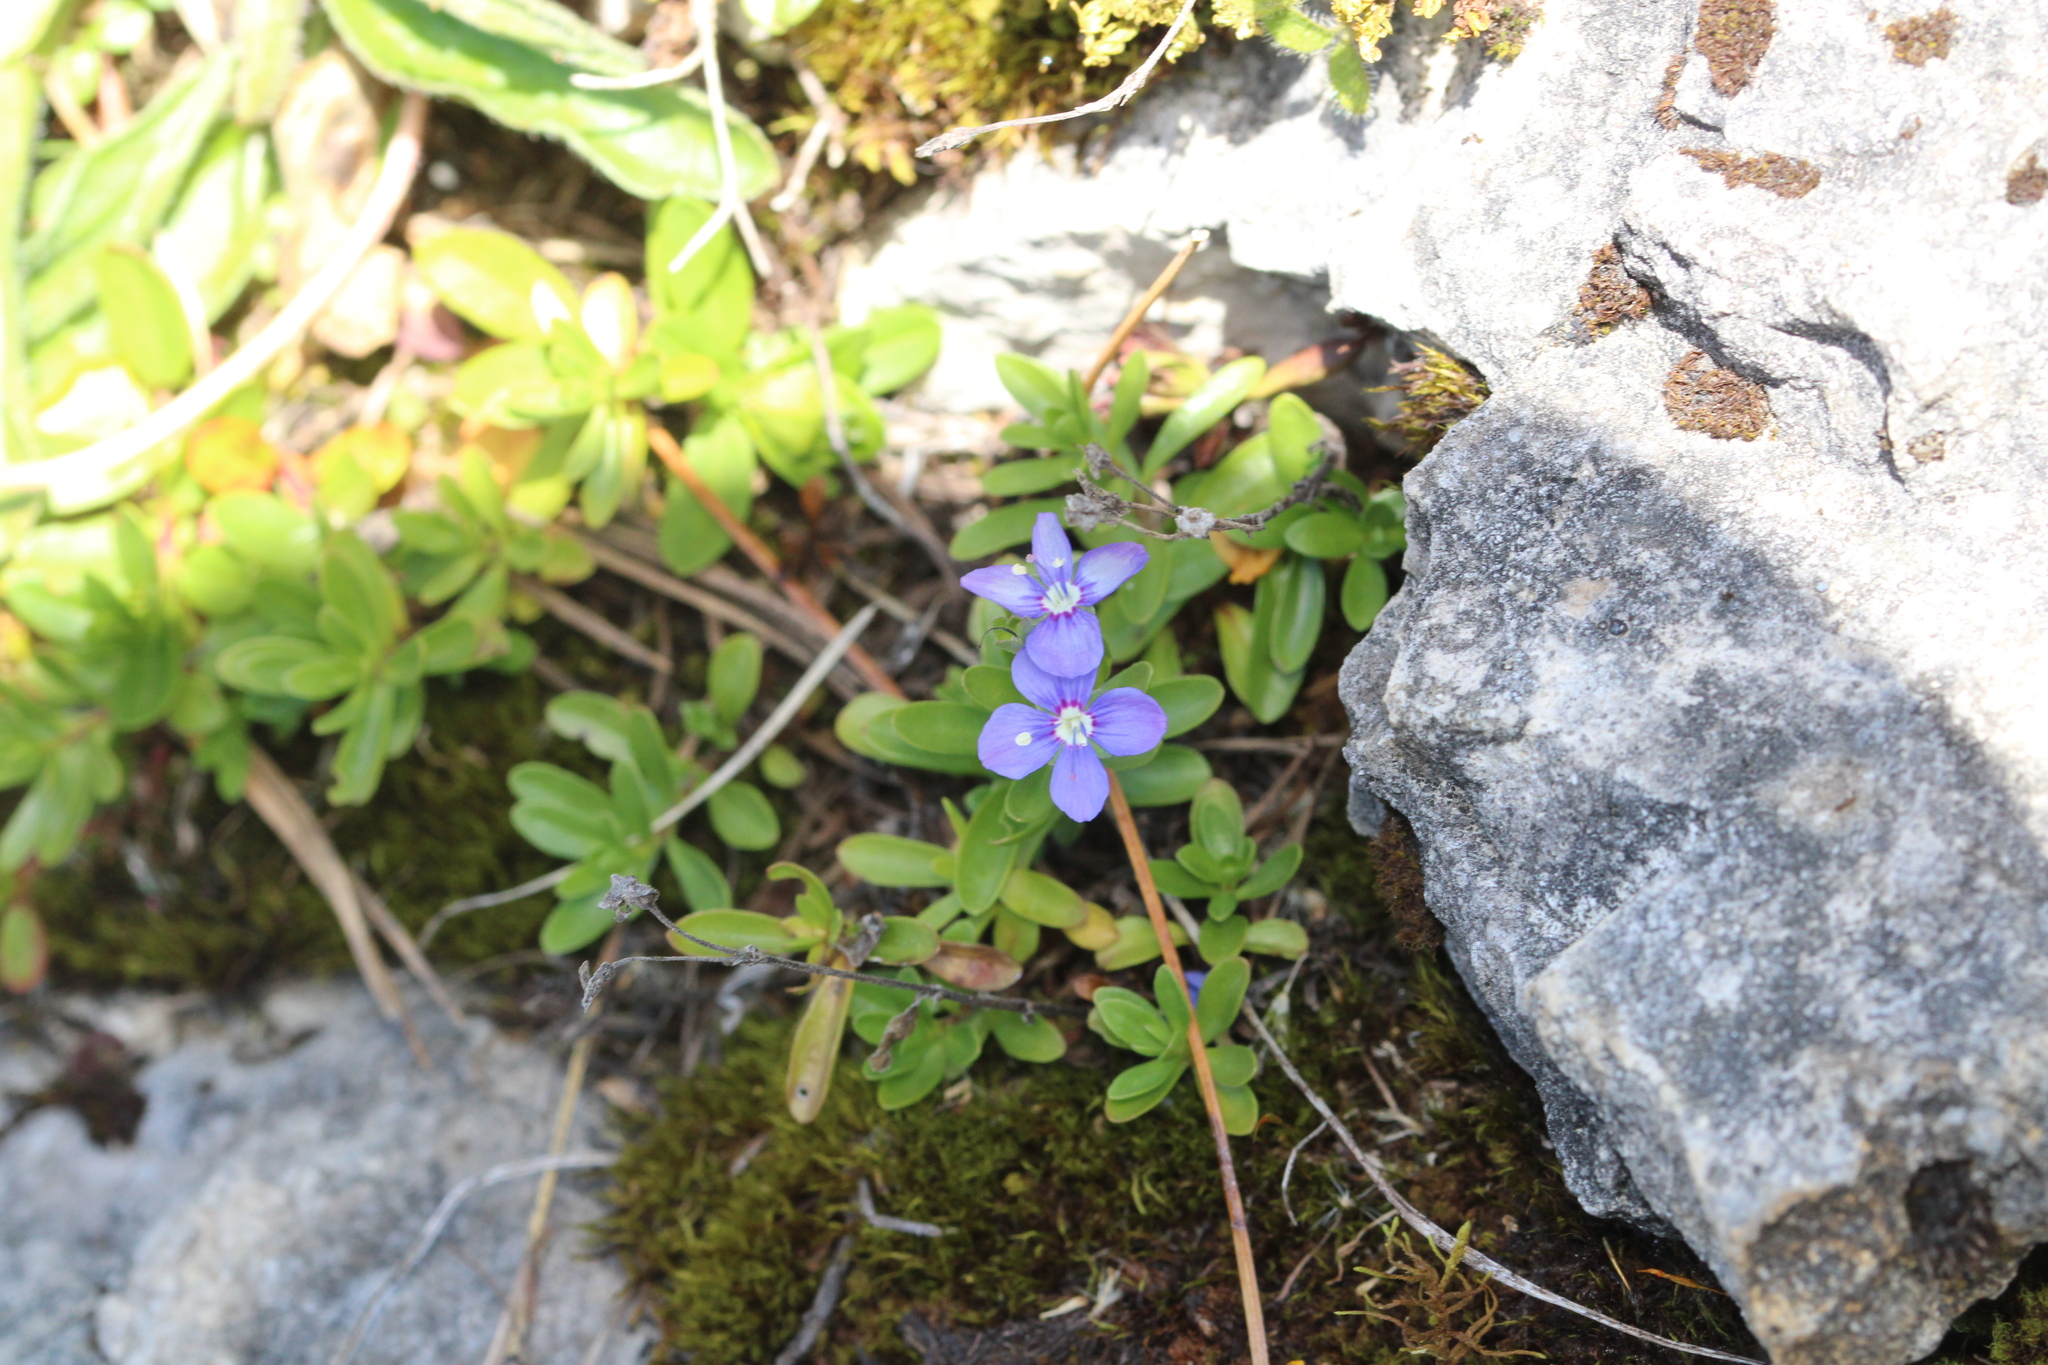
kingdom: Plantae
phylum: Tracheophyta
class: Magnoliopsida
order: Lamiales
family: Plantaginaceae
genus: Veronica
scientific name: Veronica fruticans
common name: Rock speedwell
